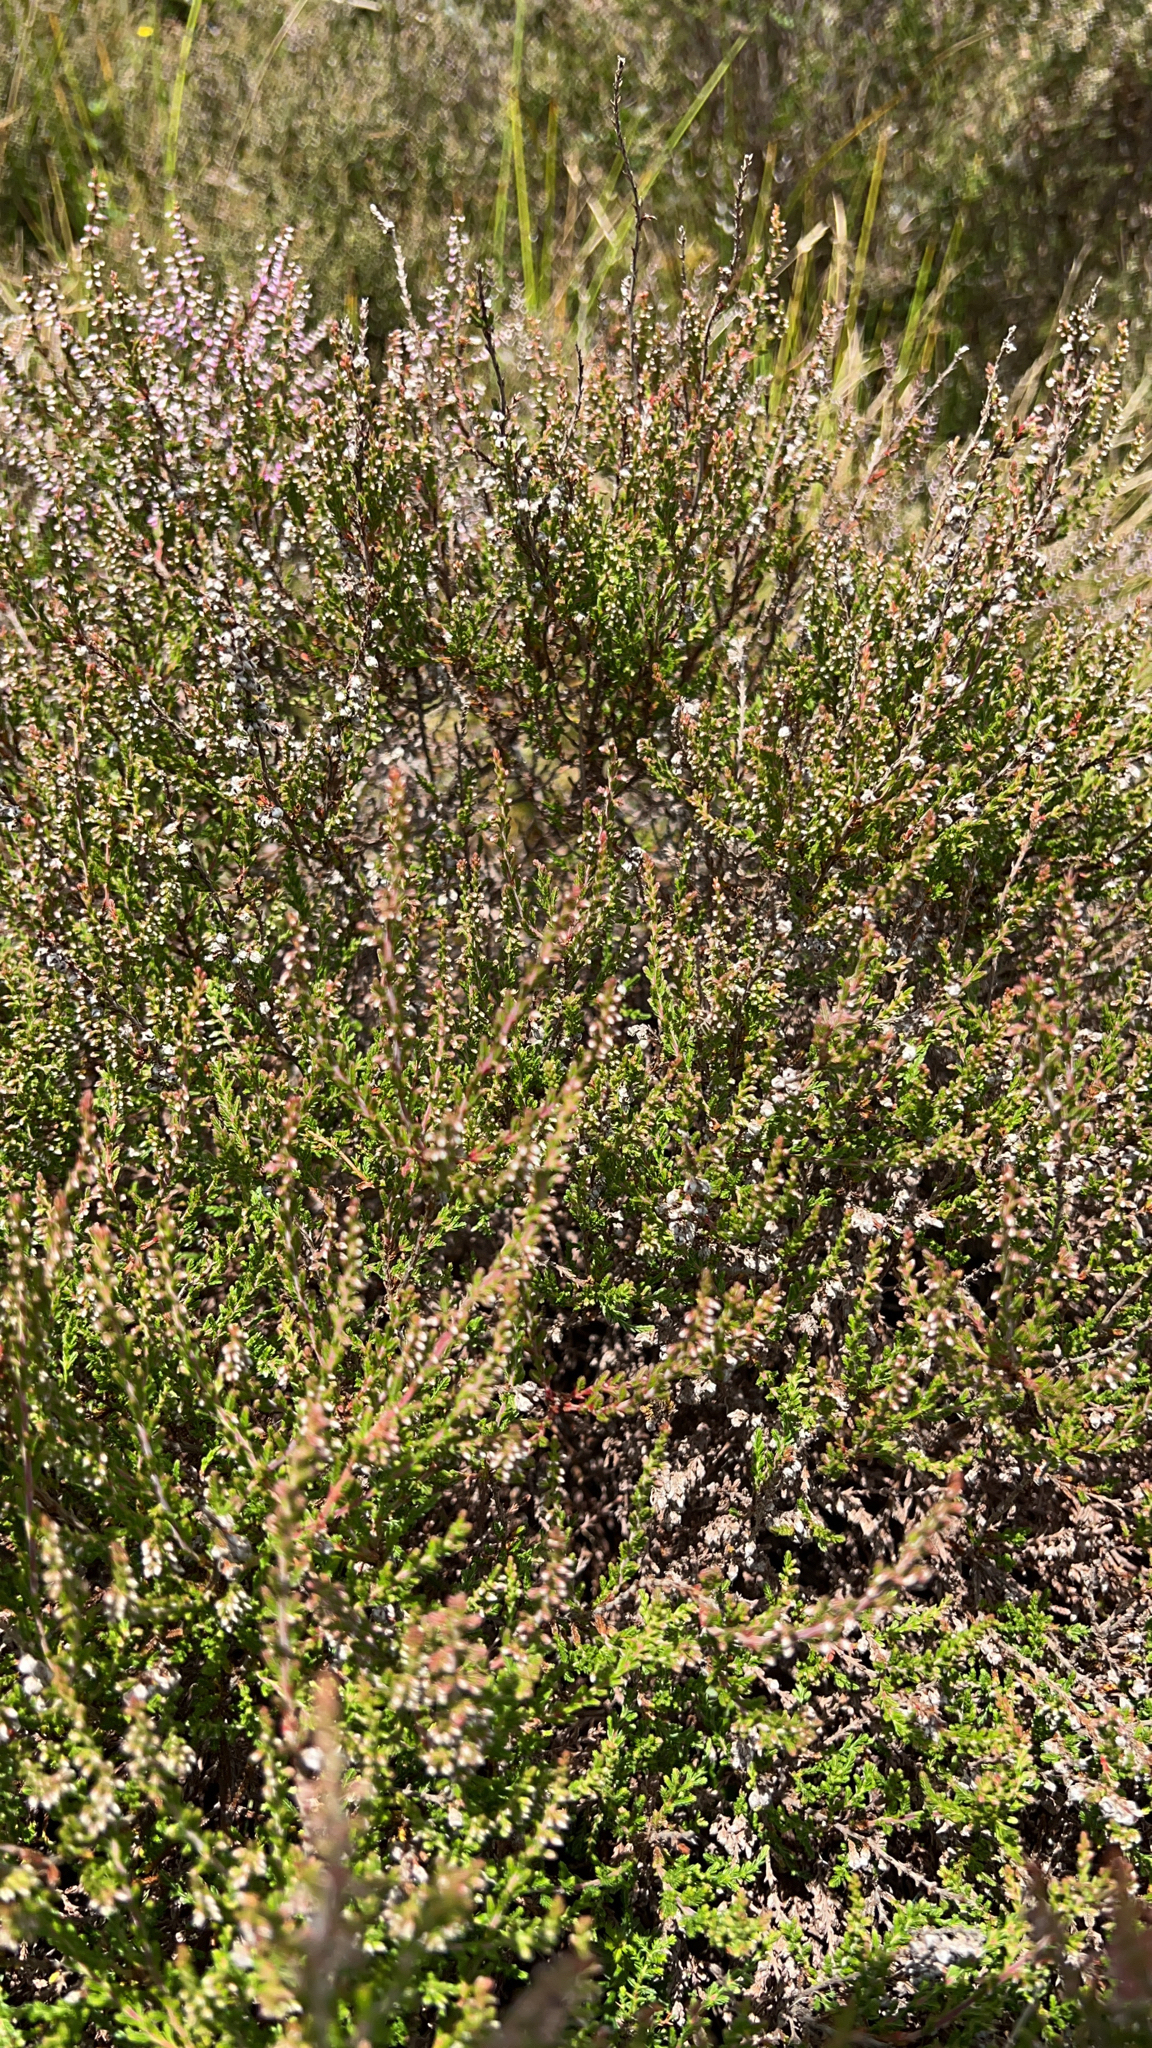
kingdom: Plantae
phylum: Tracheophyta
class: Magnoliopsida
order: Ericales
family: Ericaceae
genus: Calluna
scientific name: Calluna vulgaris
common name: Heather
